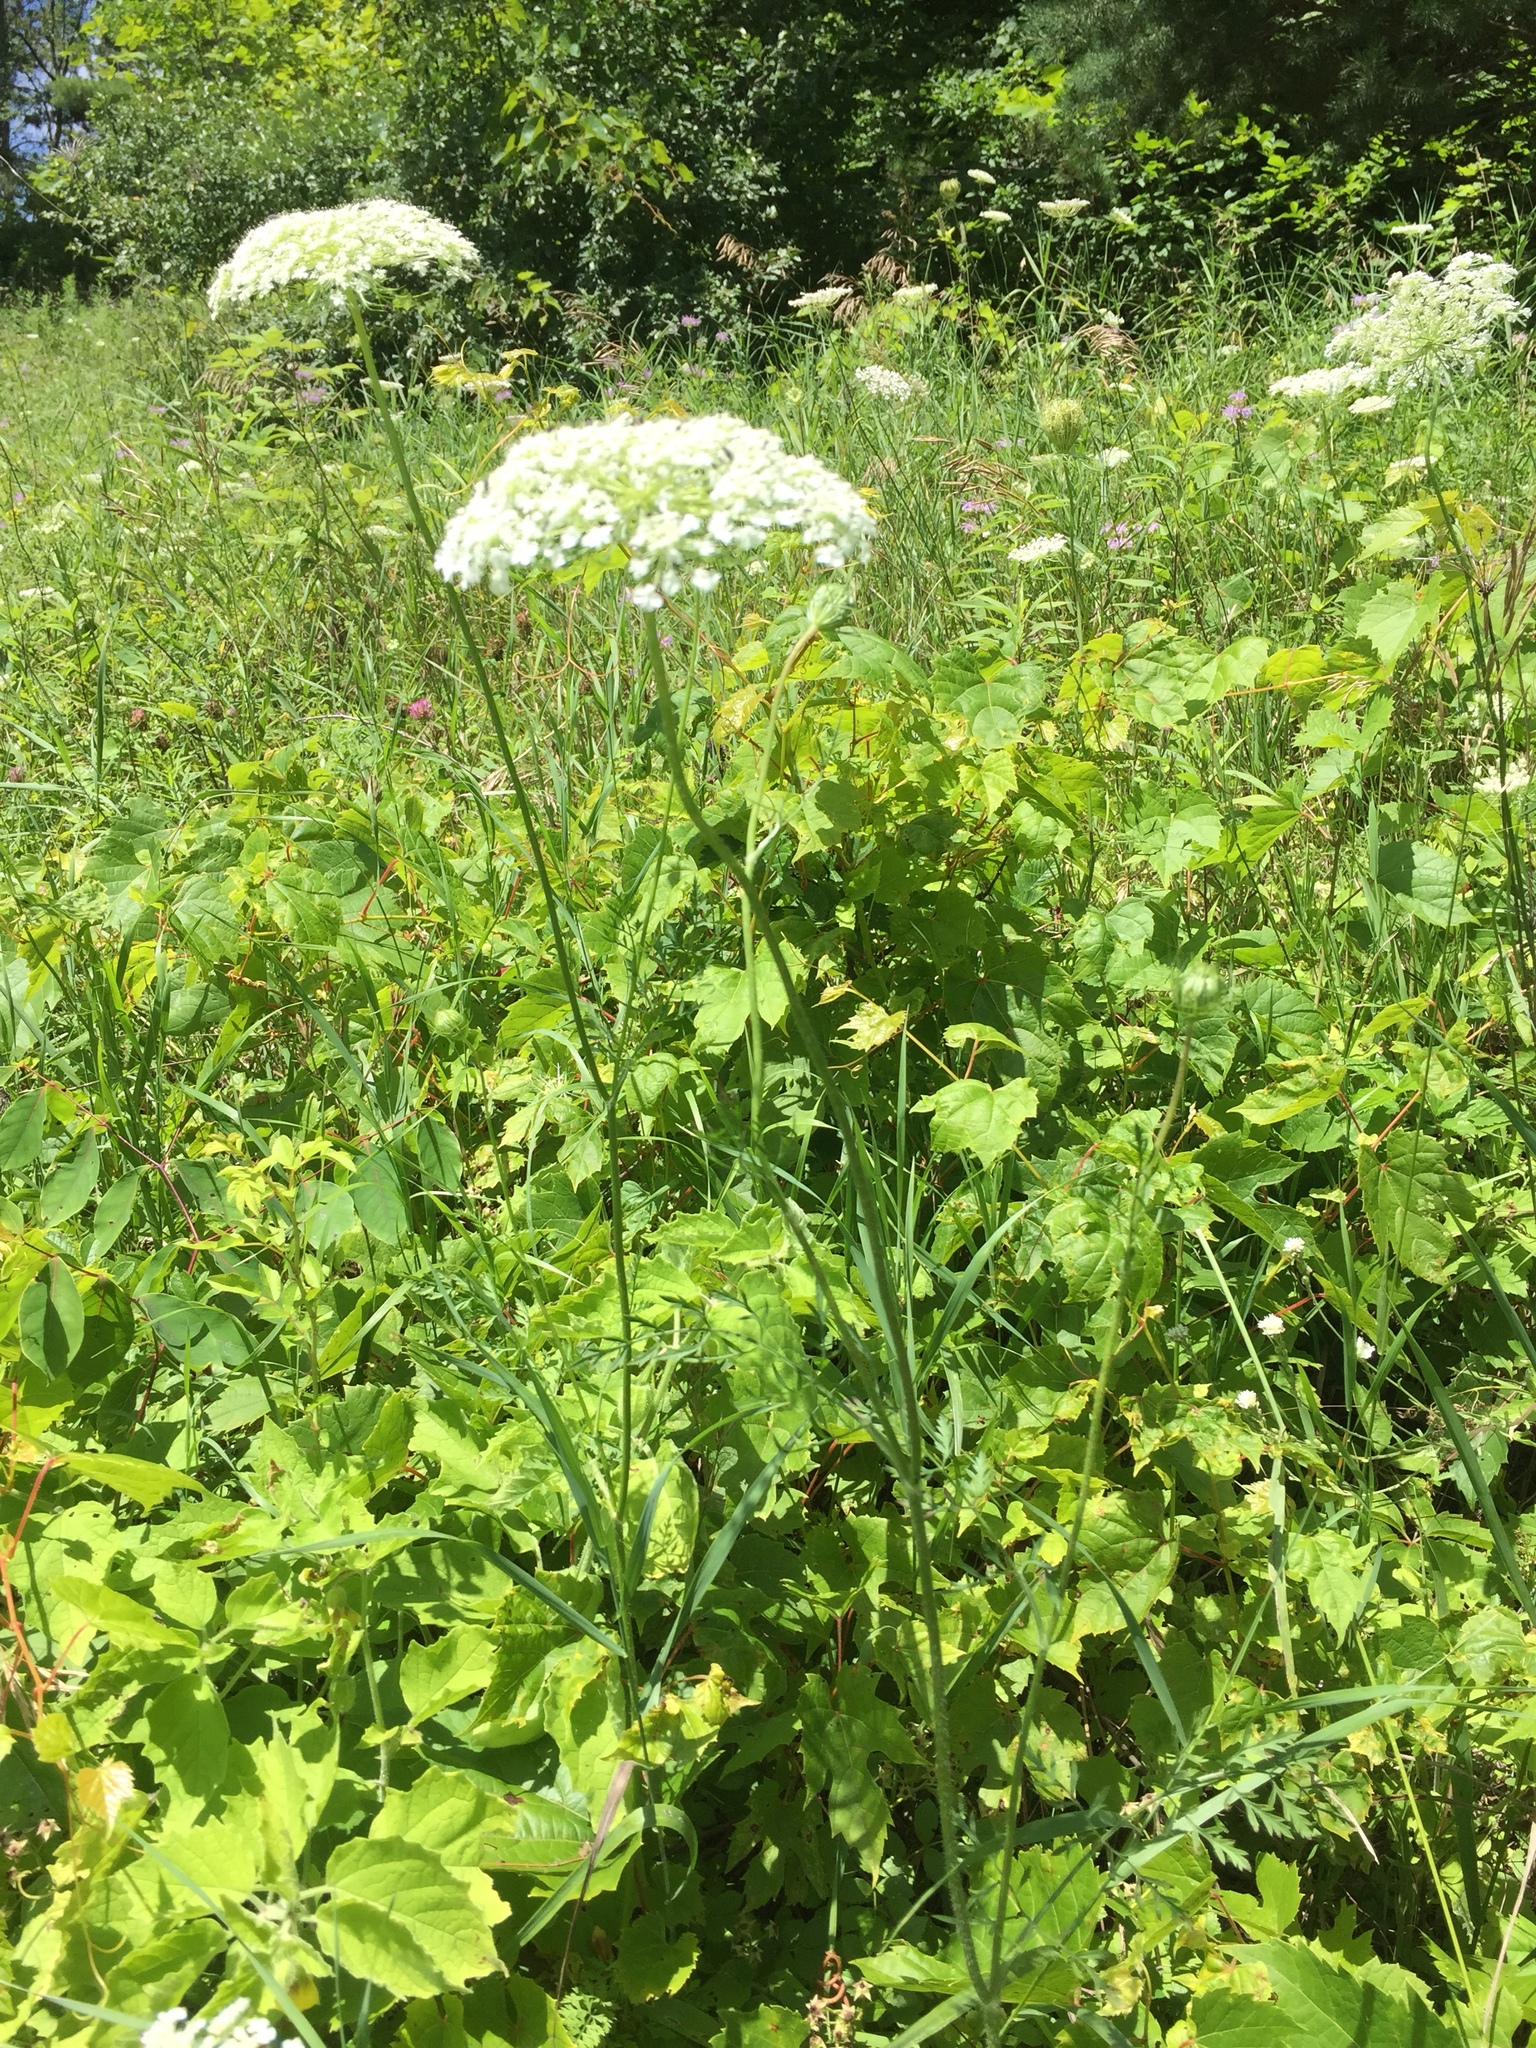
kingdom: Plantae
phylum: Tracheophyta
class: Magnoliopsida
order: Apiales
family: Apiaceae
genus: Daucus
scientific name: Daucus carota
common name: Wild carrot
